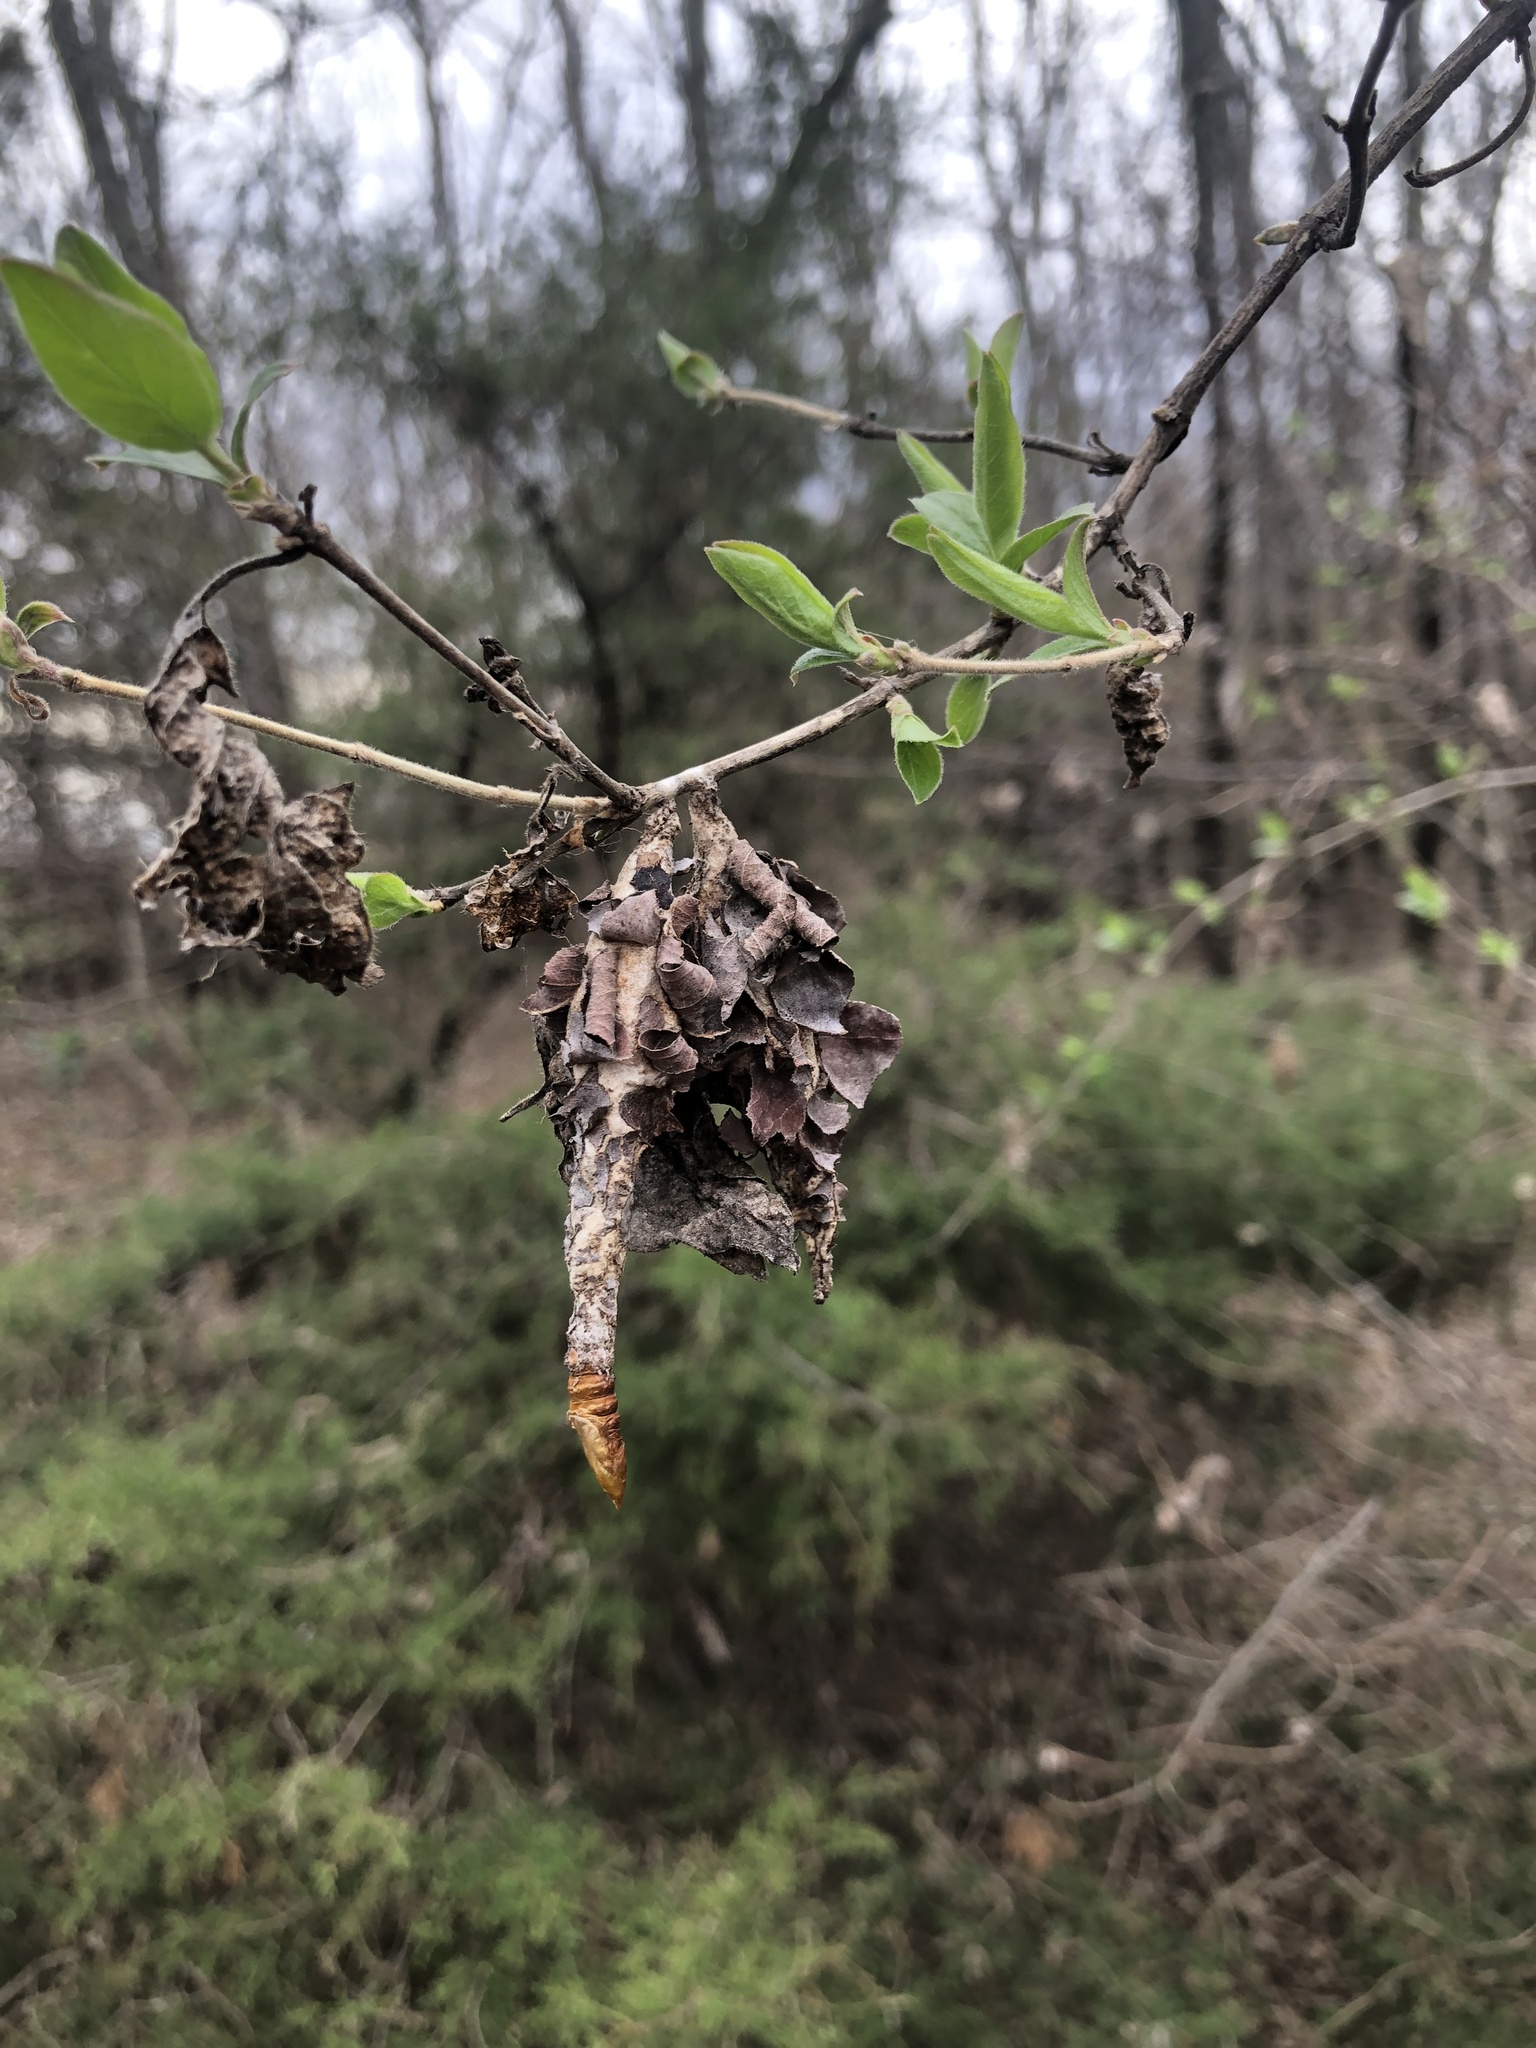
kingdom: Animalia
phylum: Arthropoda
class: Insecta
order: Lepidoptera
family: Psychidae
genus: Thyridopteryx
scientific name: Thyridopteryx ephemeraeformis
